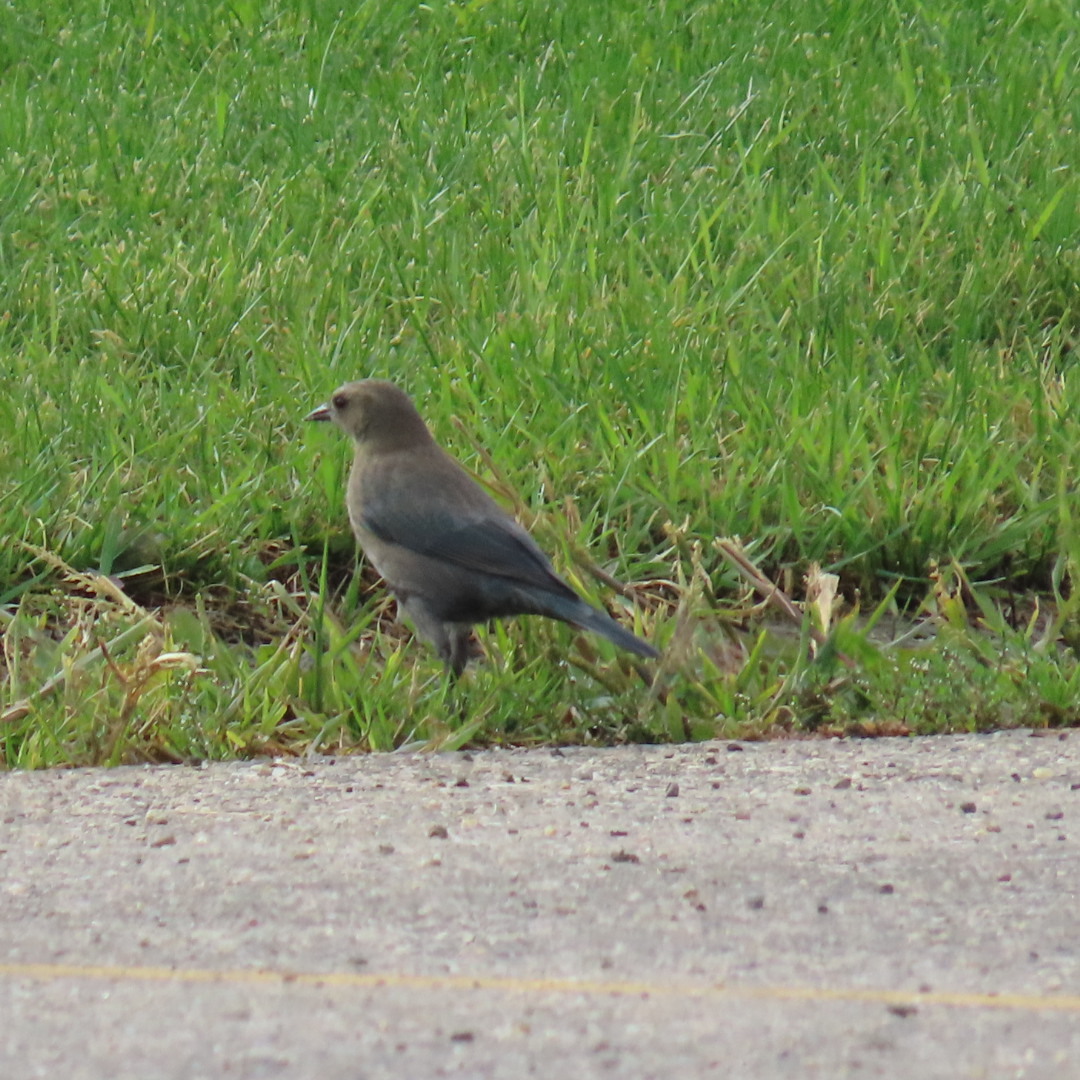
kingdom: Animalia
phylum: Chordata
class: Aves
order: Passeriformes
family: Icteridae
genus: Euphagus
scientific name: Euphagus cyanocephalus
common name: Brewer's blackbird
